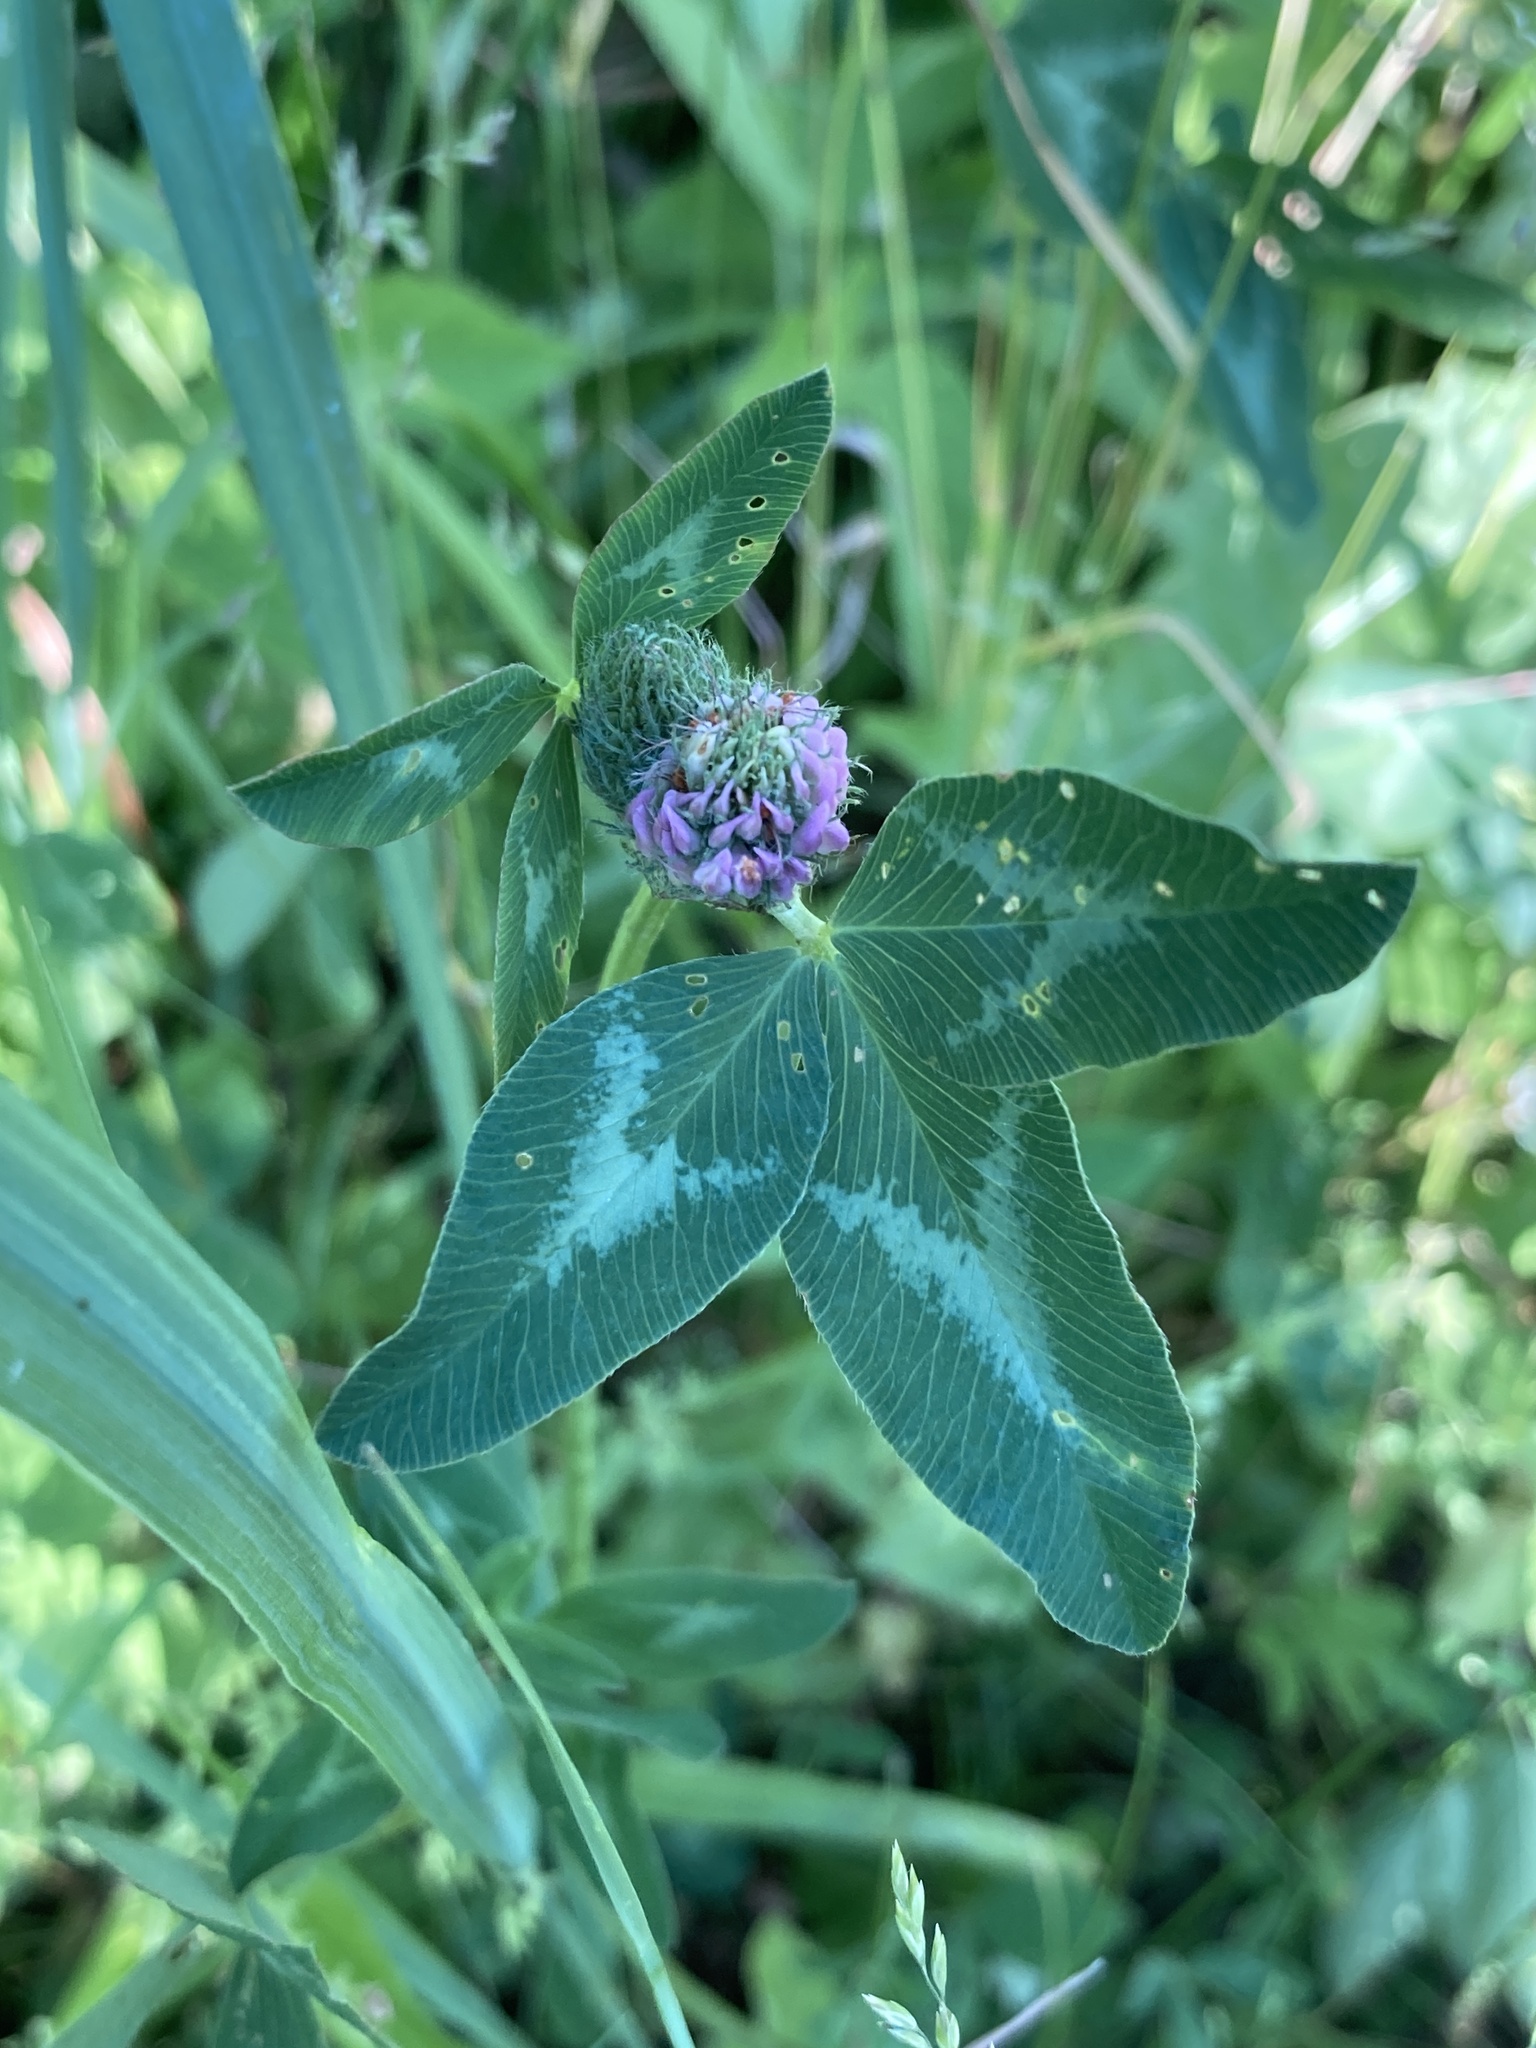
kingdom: Plantae
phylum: Tracheophyta
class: Magnoliopsida
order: Fabales
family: Fabaceae
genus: Trifolium
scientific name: Trifolium pratense
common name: Red clover
